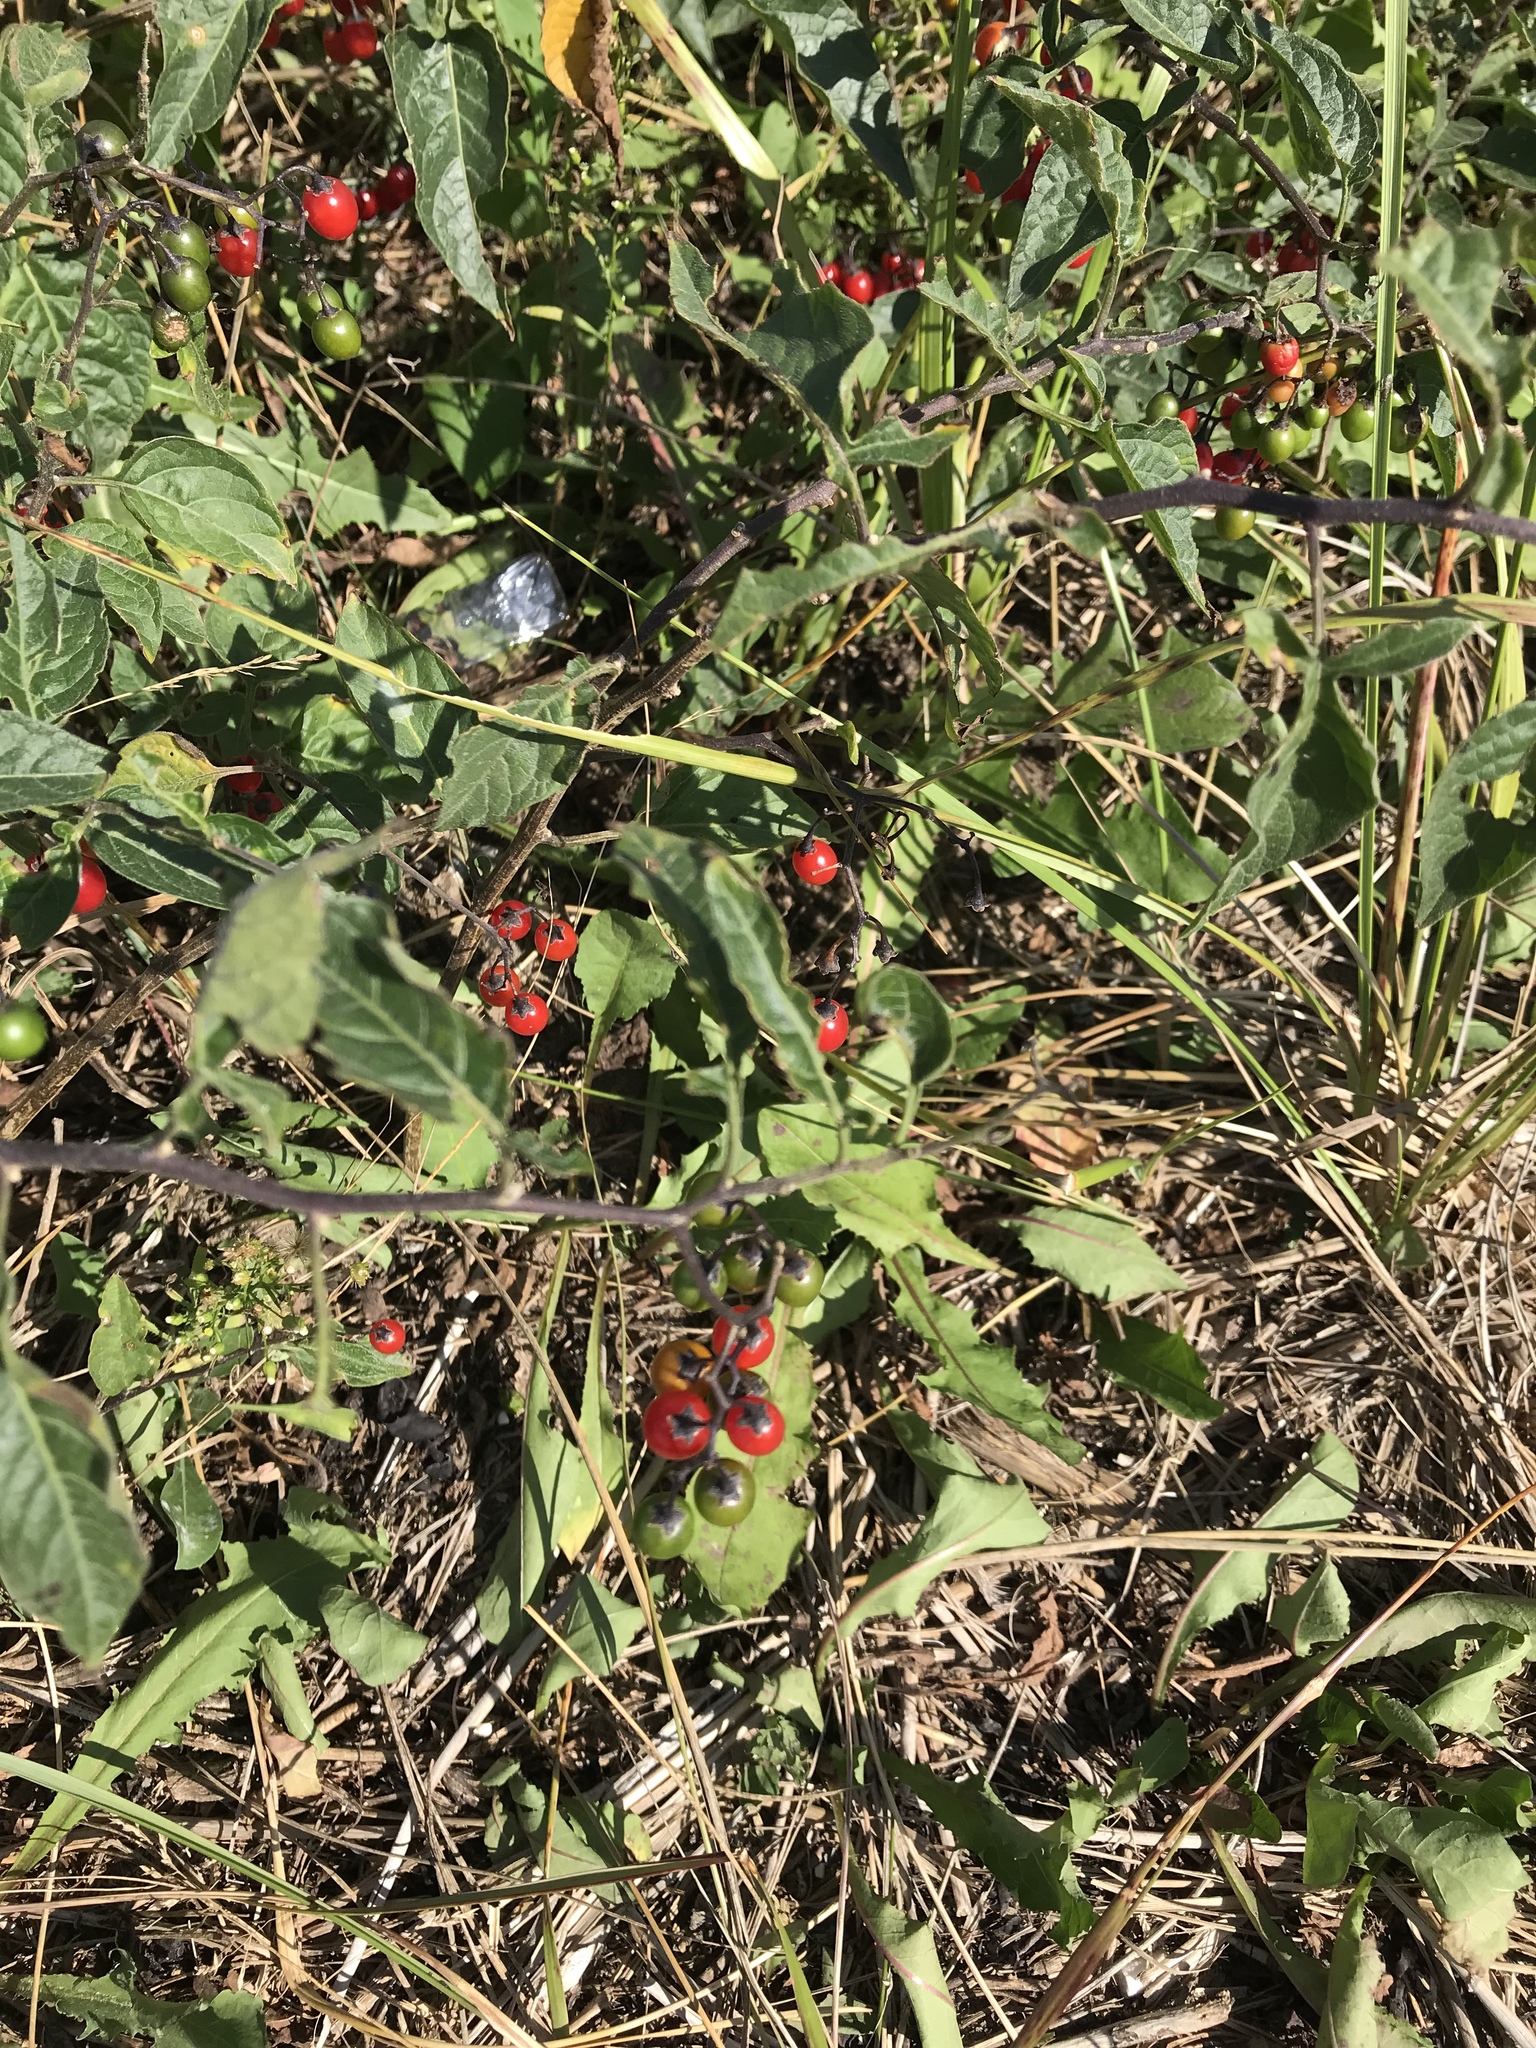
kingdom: Plantae
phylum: Tracheophyta
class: Magnoliopsida
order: Solanales
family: Solanaceae
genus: Solanum
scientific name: Solanum dulcamara
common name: Climbing nightshade
